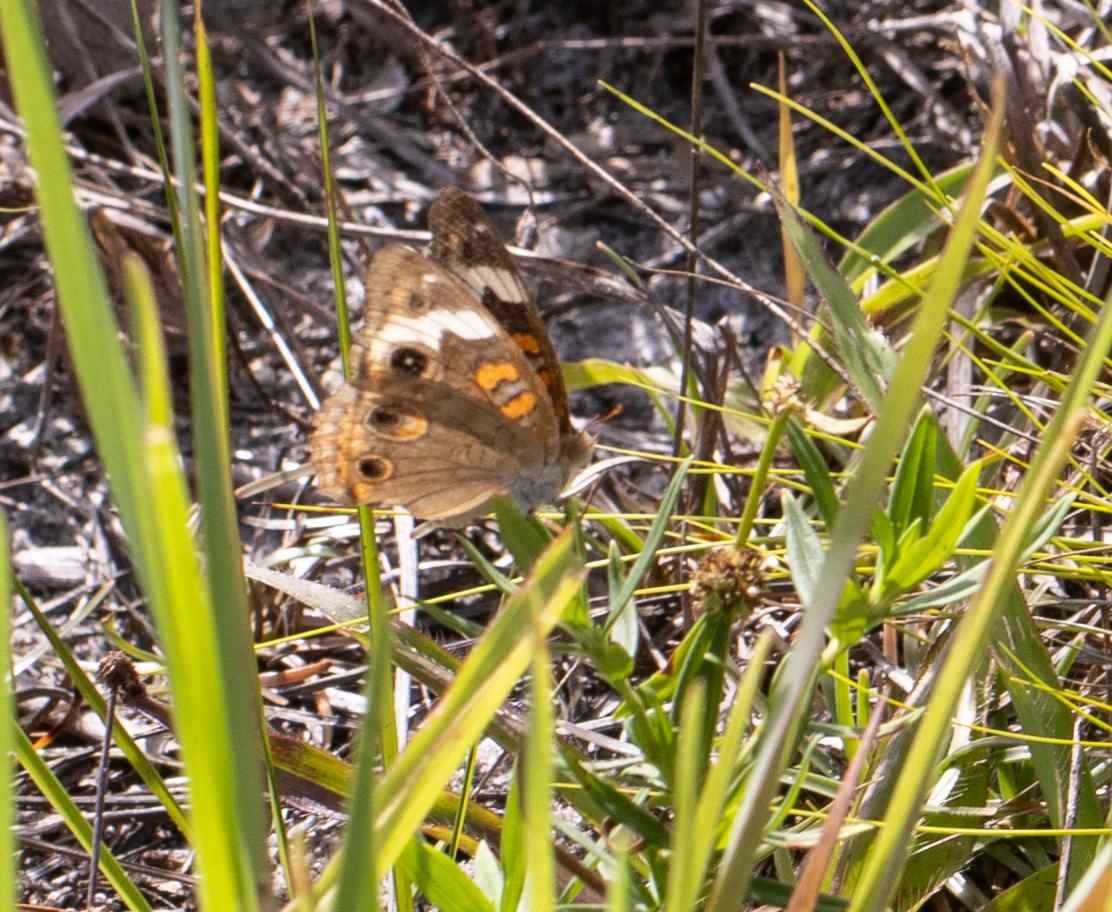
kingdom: Animalia
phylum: Arthropoda
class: Insecta
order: Lepidoptera
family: Nymphalidae
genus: Junonia
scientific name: Junonia coenia
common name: Common buckeye
